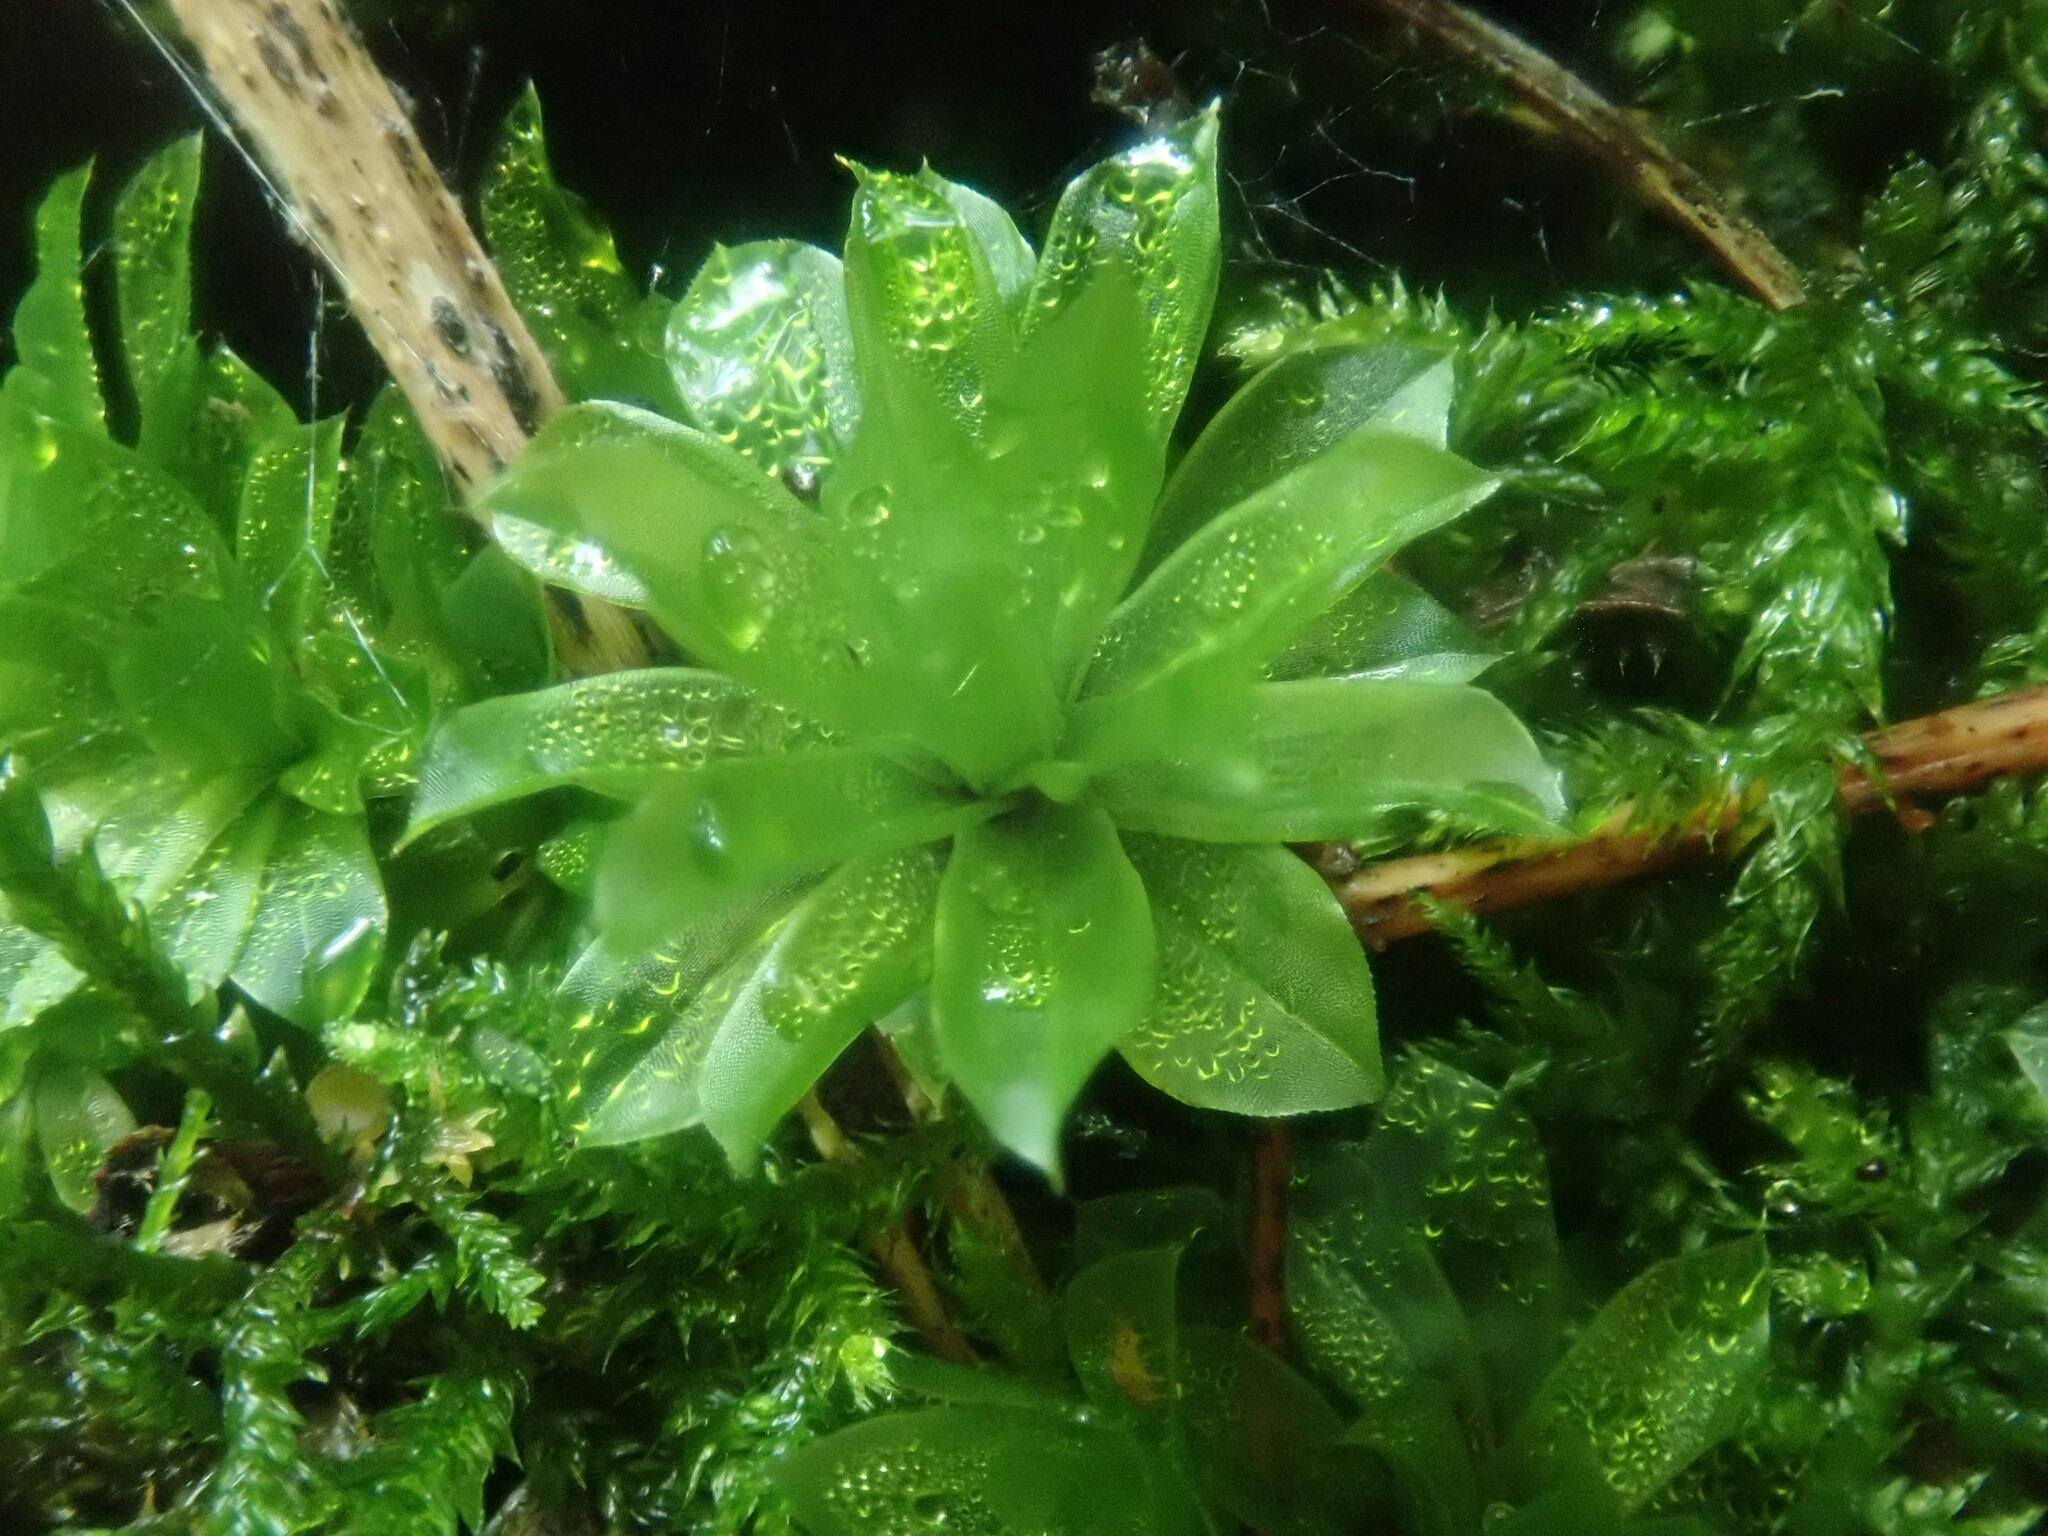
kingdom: Plantae
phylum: Bryophyta
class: Bryopsida
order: Bryales
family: Bryaceae
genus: Rhodobryum
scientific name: Rhodobryum ontariense
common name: Ontario rhodobryum moss
